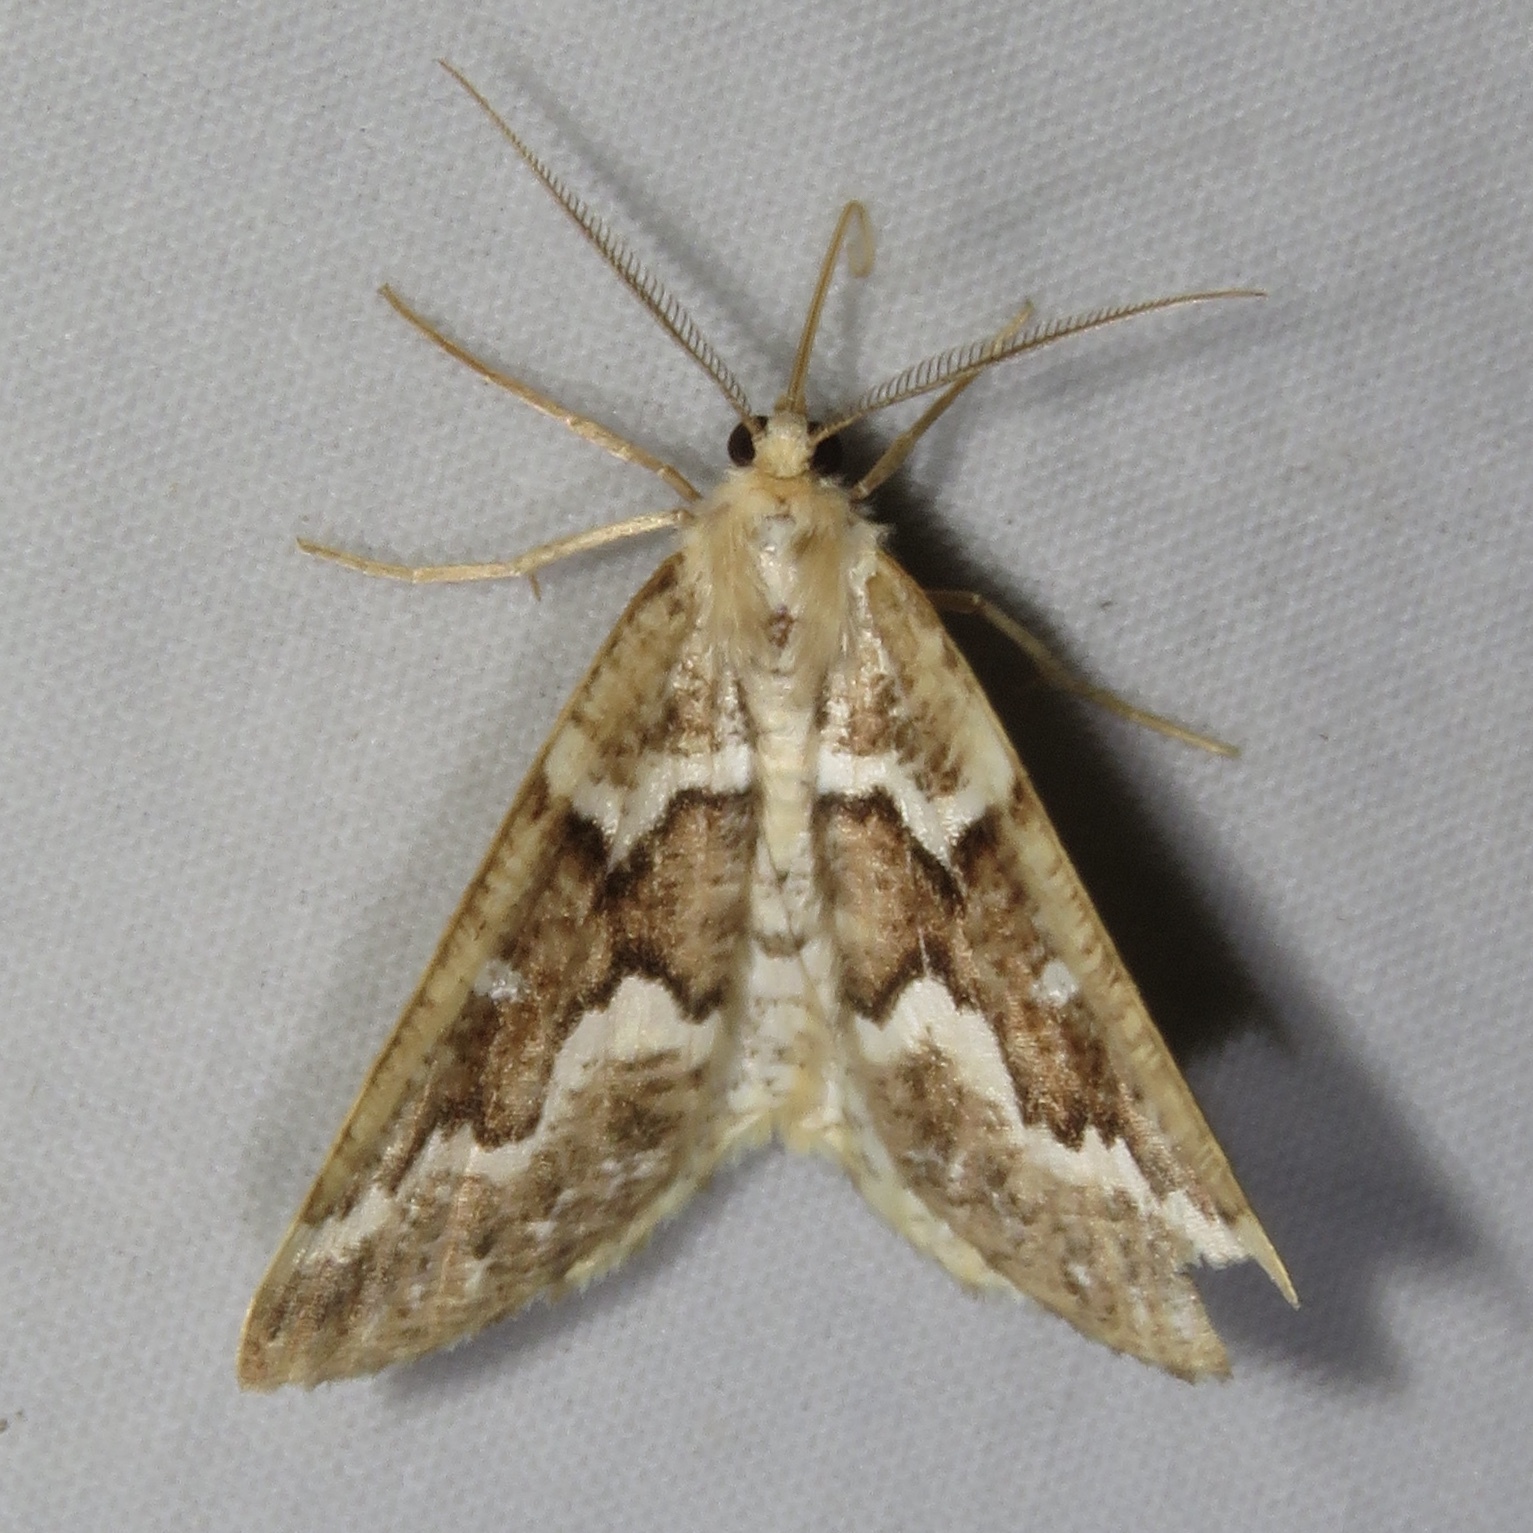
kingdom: Animalia
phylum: Arthropoda
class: Insecta
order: Lepidoptera
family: Geometridae
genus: Caripeta
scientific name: Caripeta divisata
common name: Gray spruce looper
